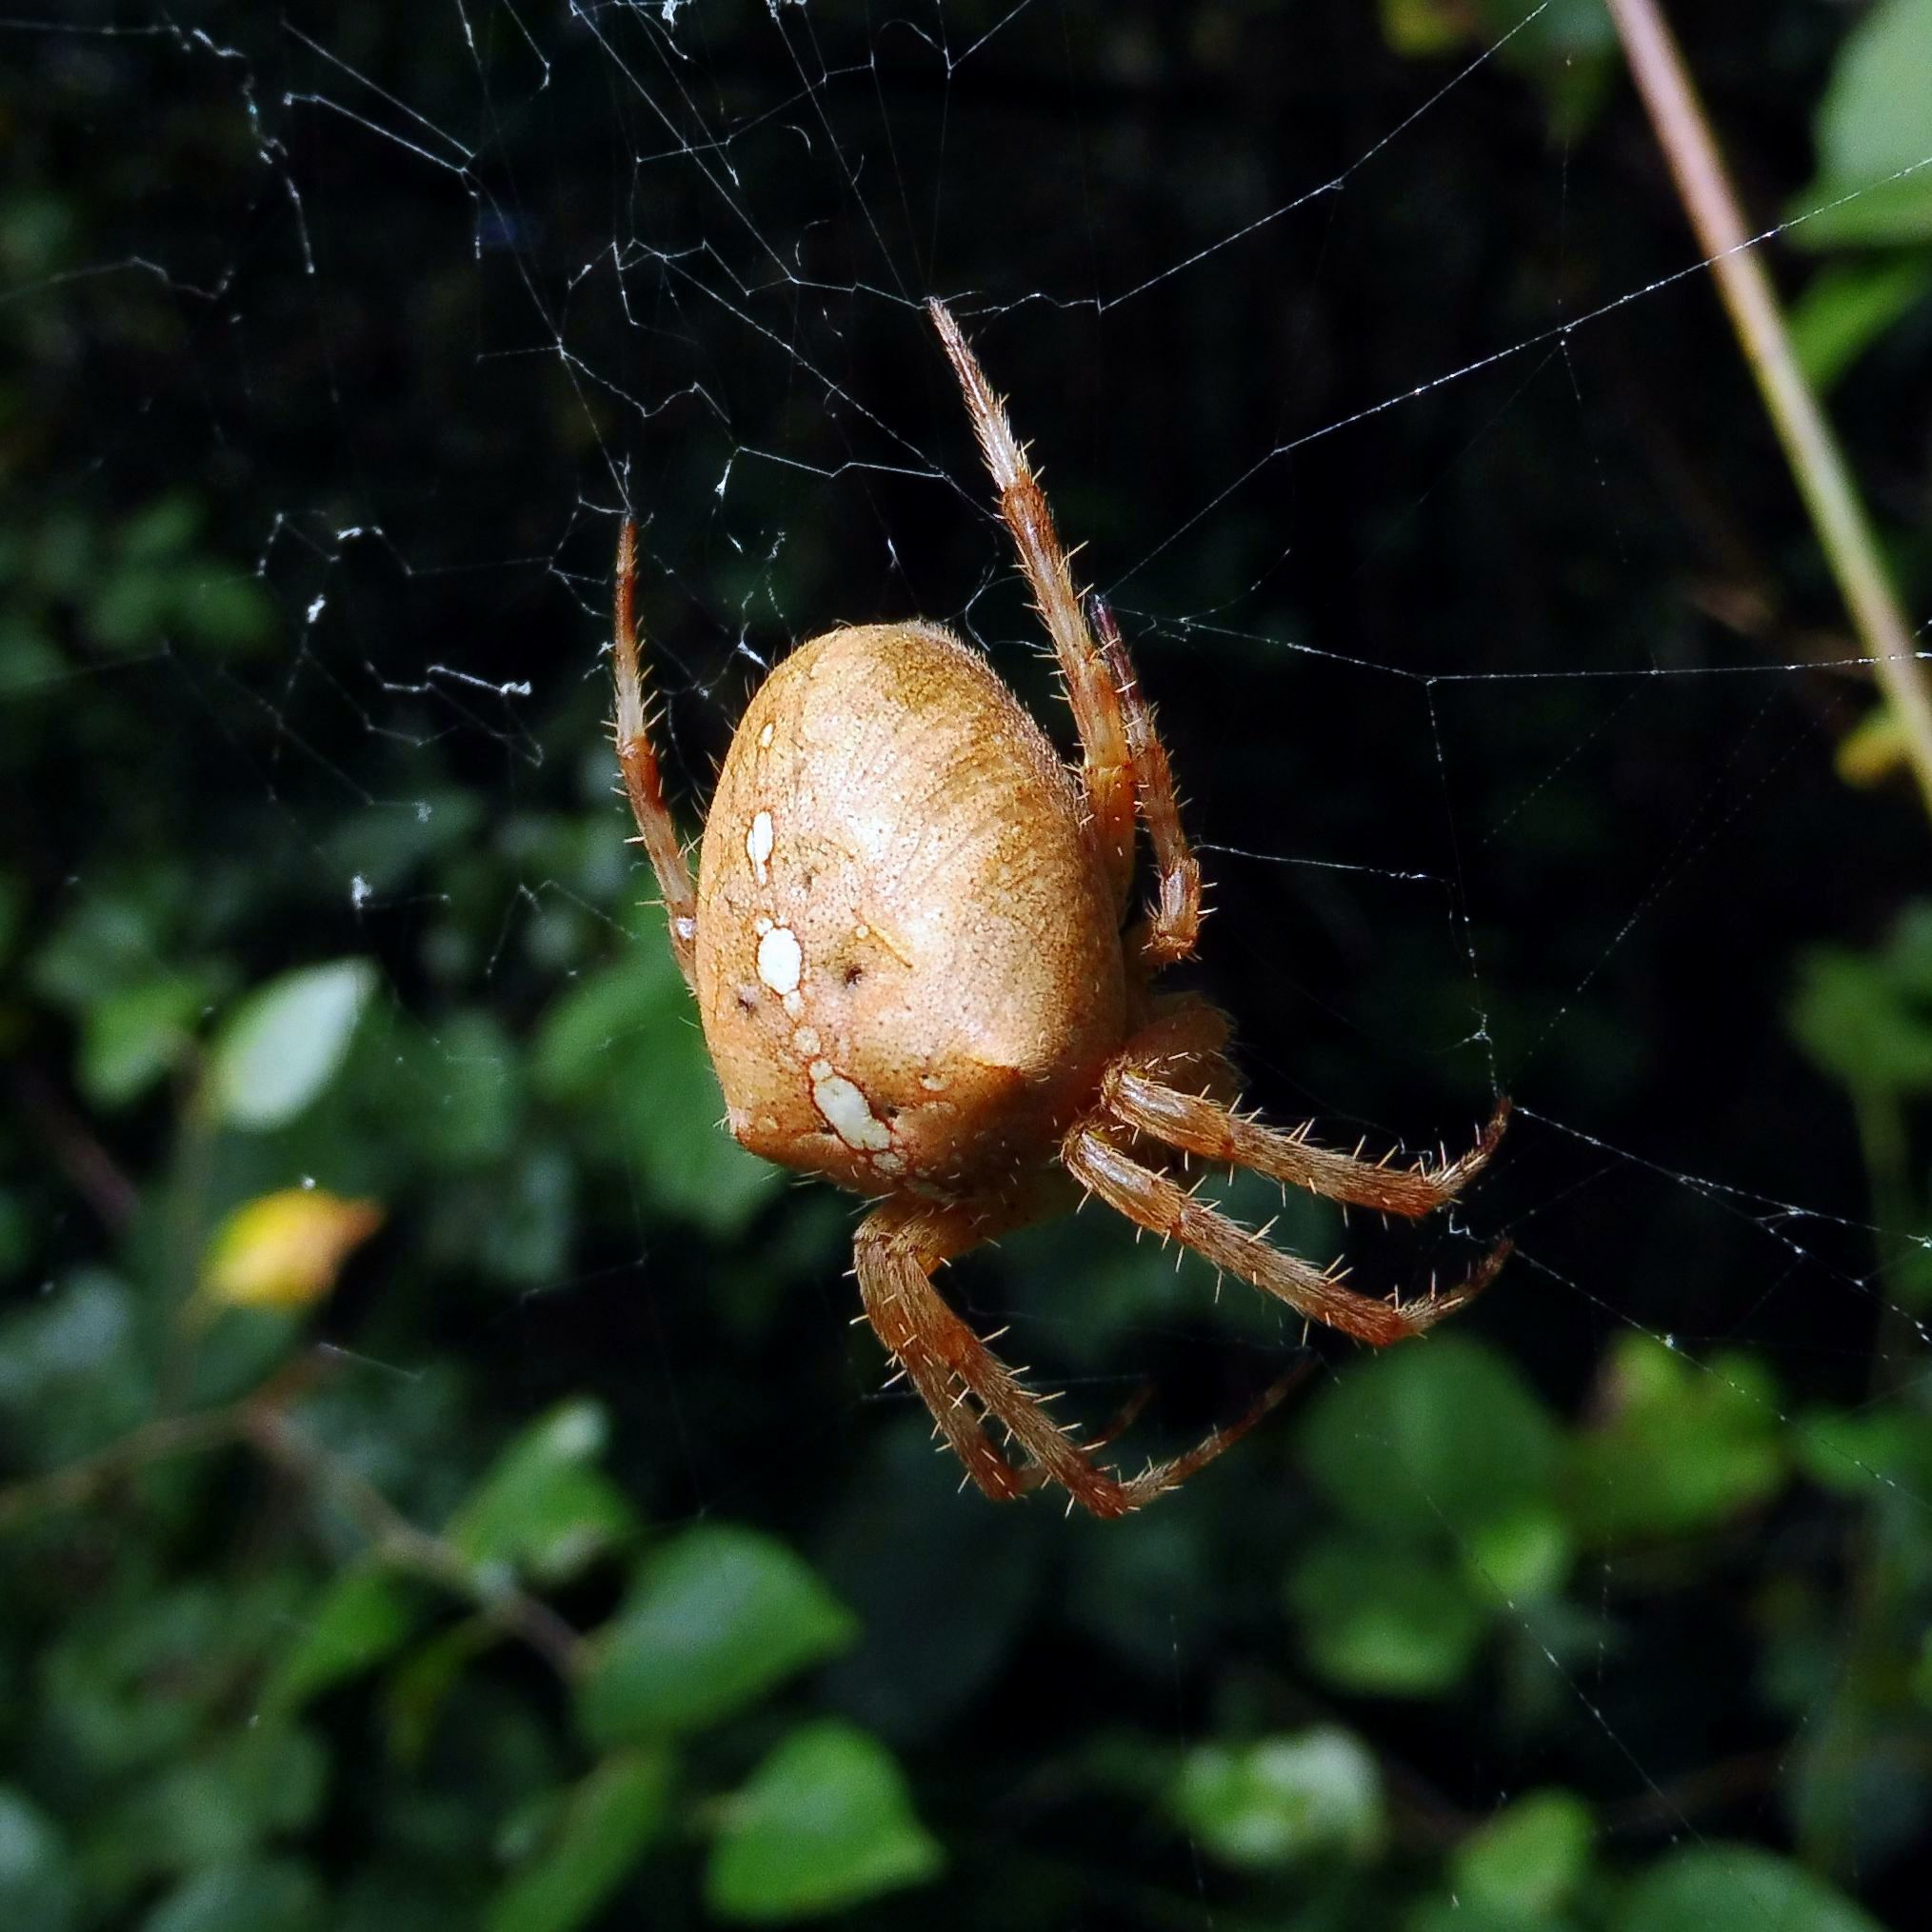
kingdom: Animalia
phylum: Arthropoda
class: Arachnida
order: Araneae
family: Araneidae
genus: Araneus
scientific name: Araneus diadematus
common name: Cross orbweaver
